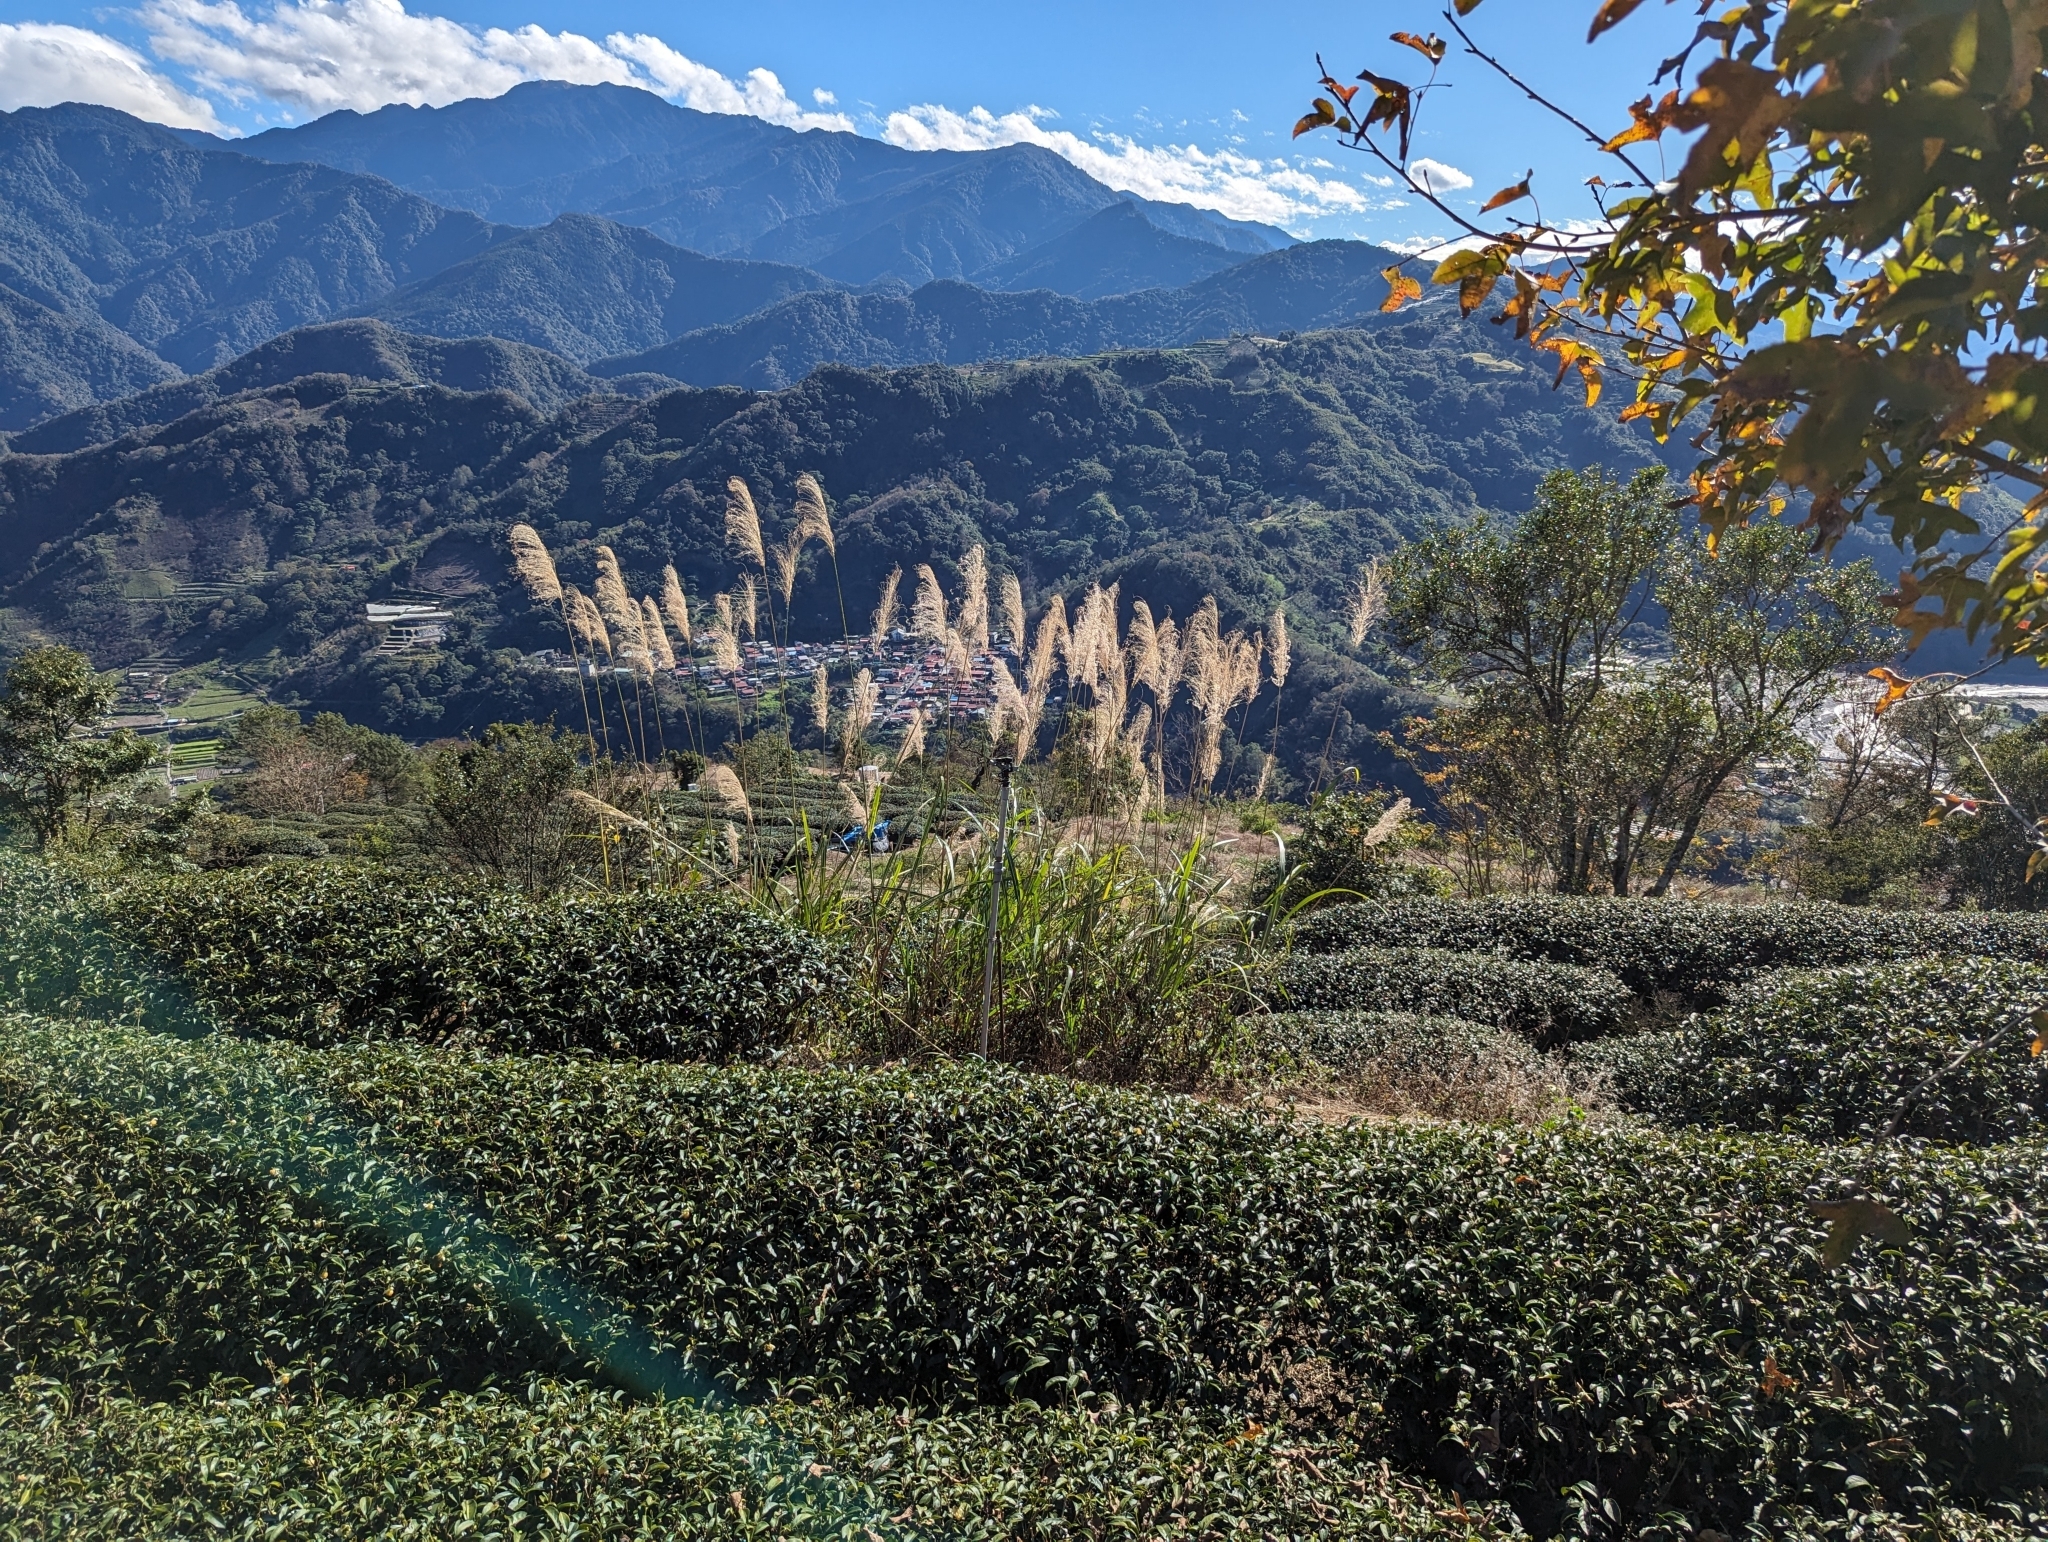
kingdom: Plantae
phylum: Tracheophyta
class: Liliopsida
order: Poales
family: Poaceae
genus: Miscanthus
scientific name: Miscanthus sinensis
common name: Chinese silvergrass
